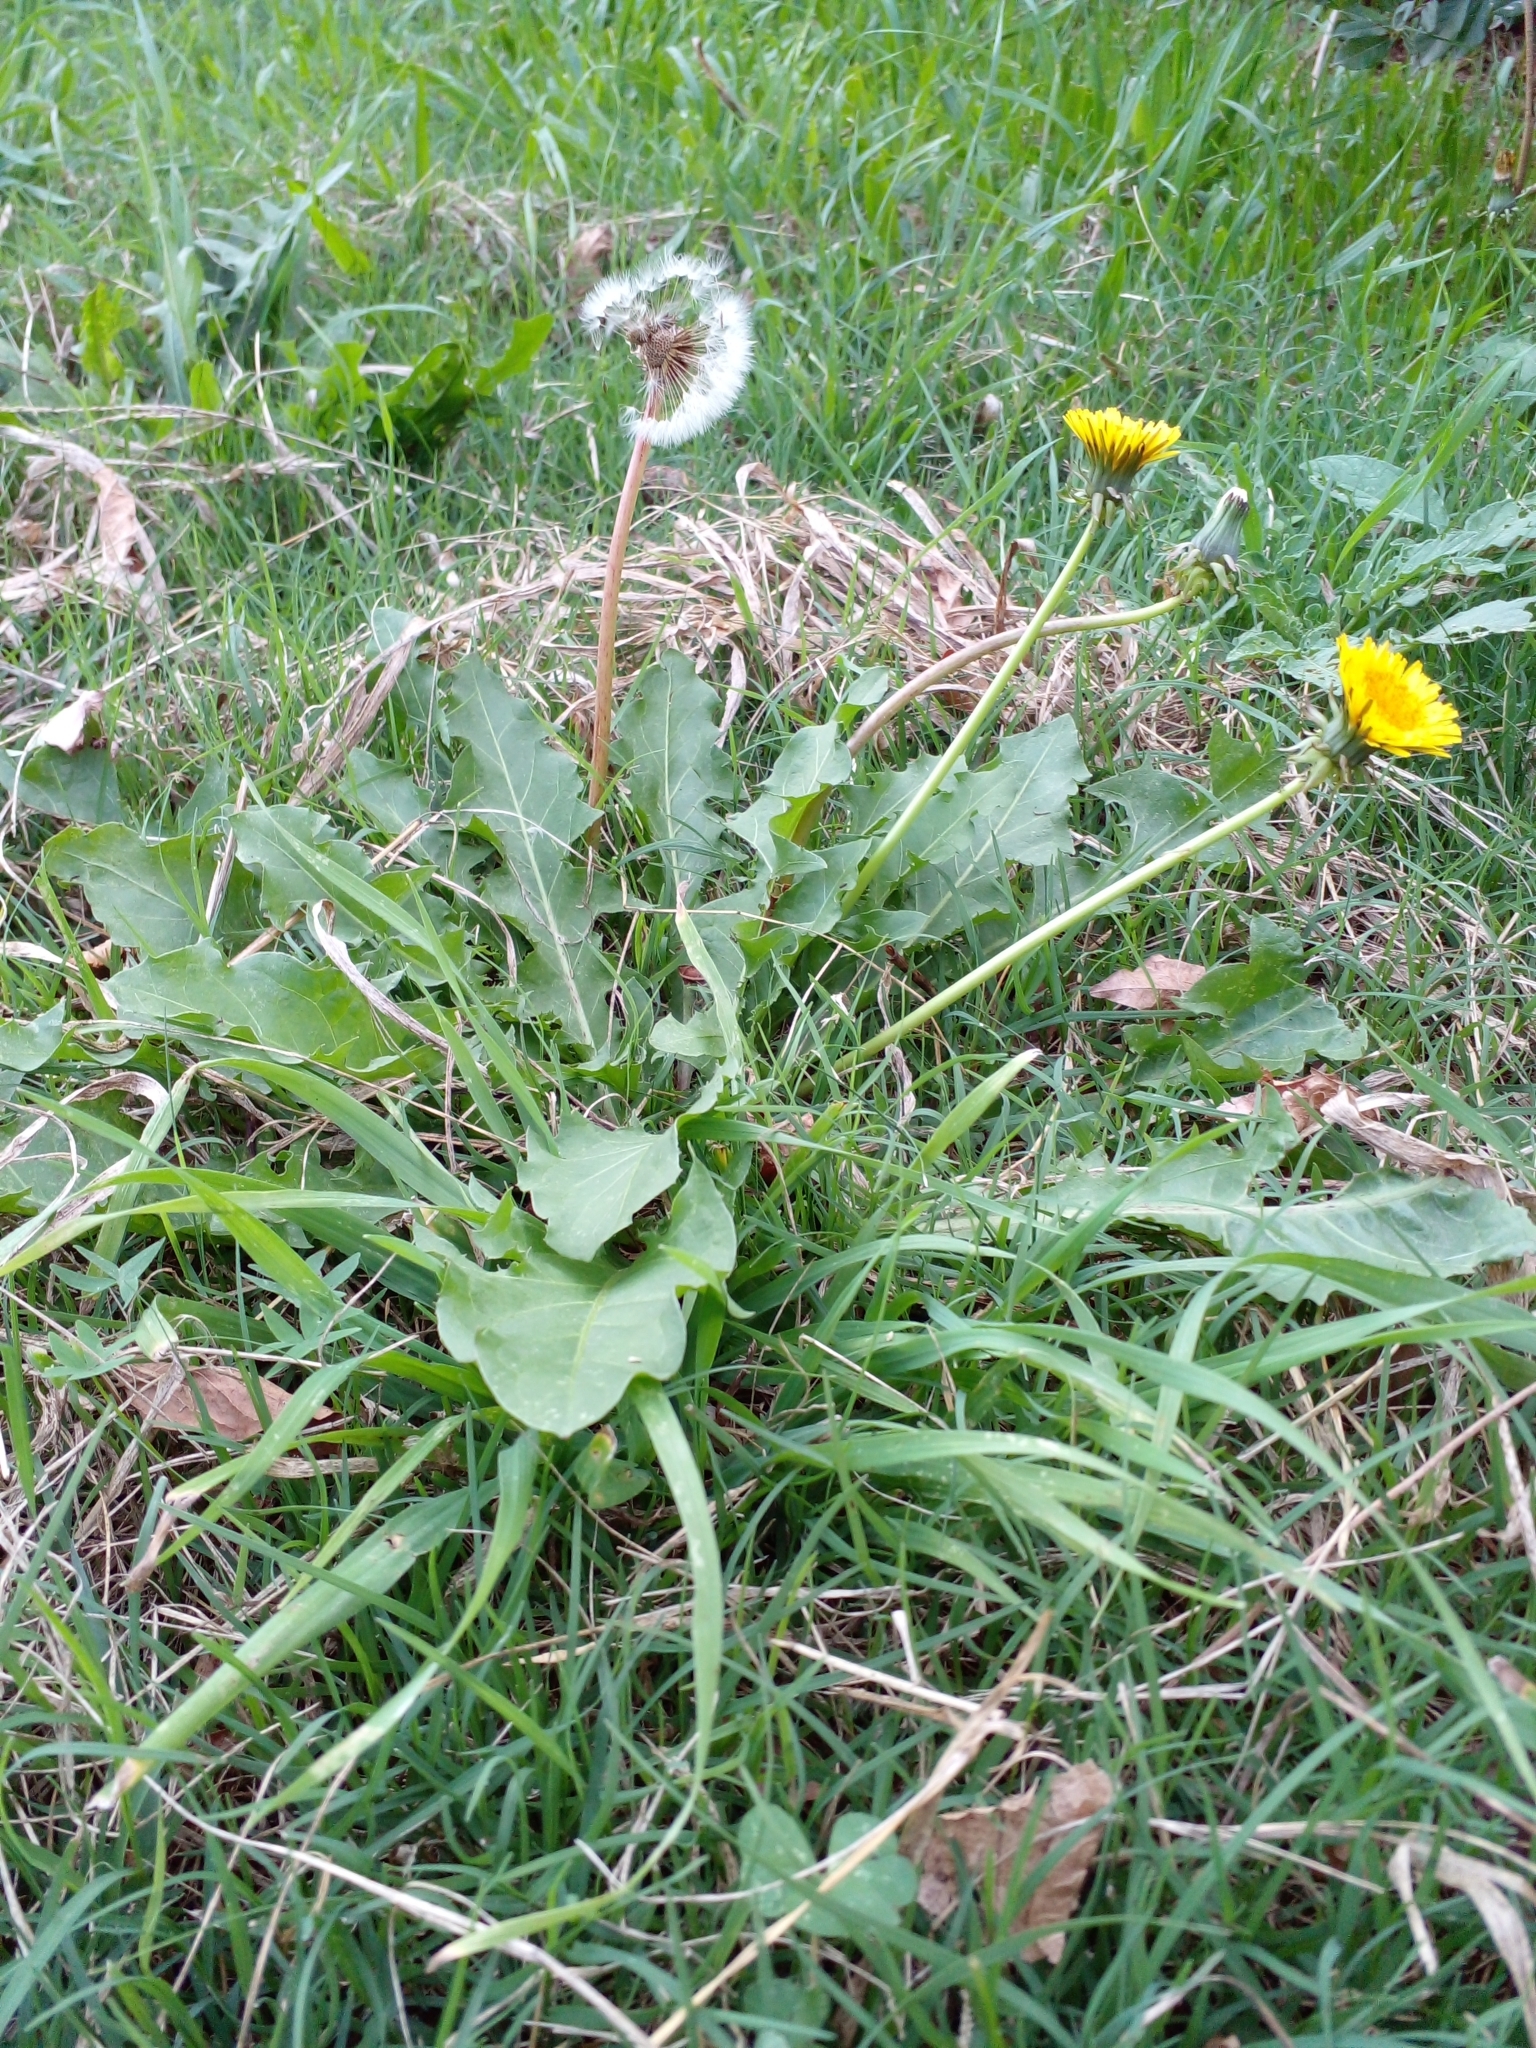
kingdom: Plantae
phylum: Tracheophyta
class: Magnoliopsida
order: Asterales
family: Asteraceae
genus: Taraxacum
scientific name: Taraxacum officinale
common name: Common dandelion
